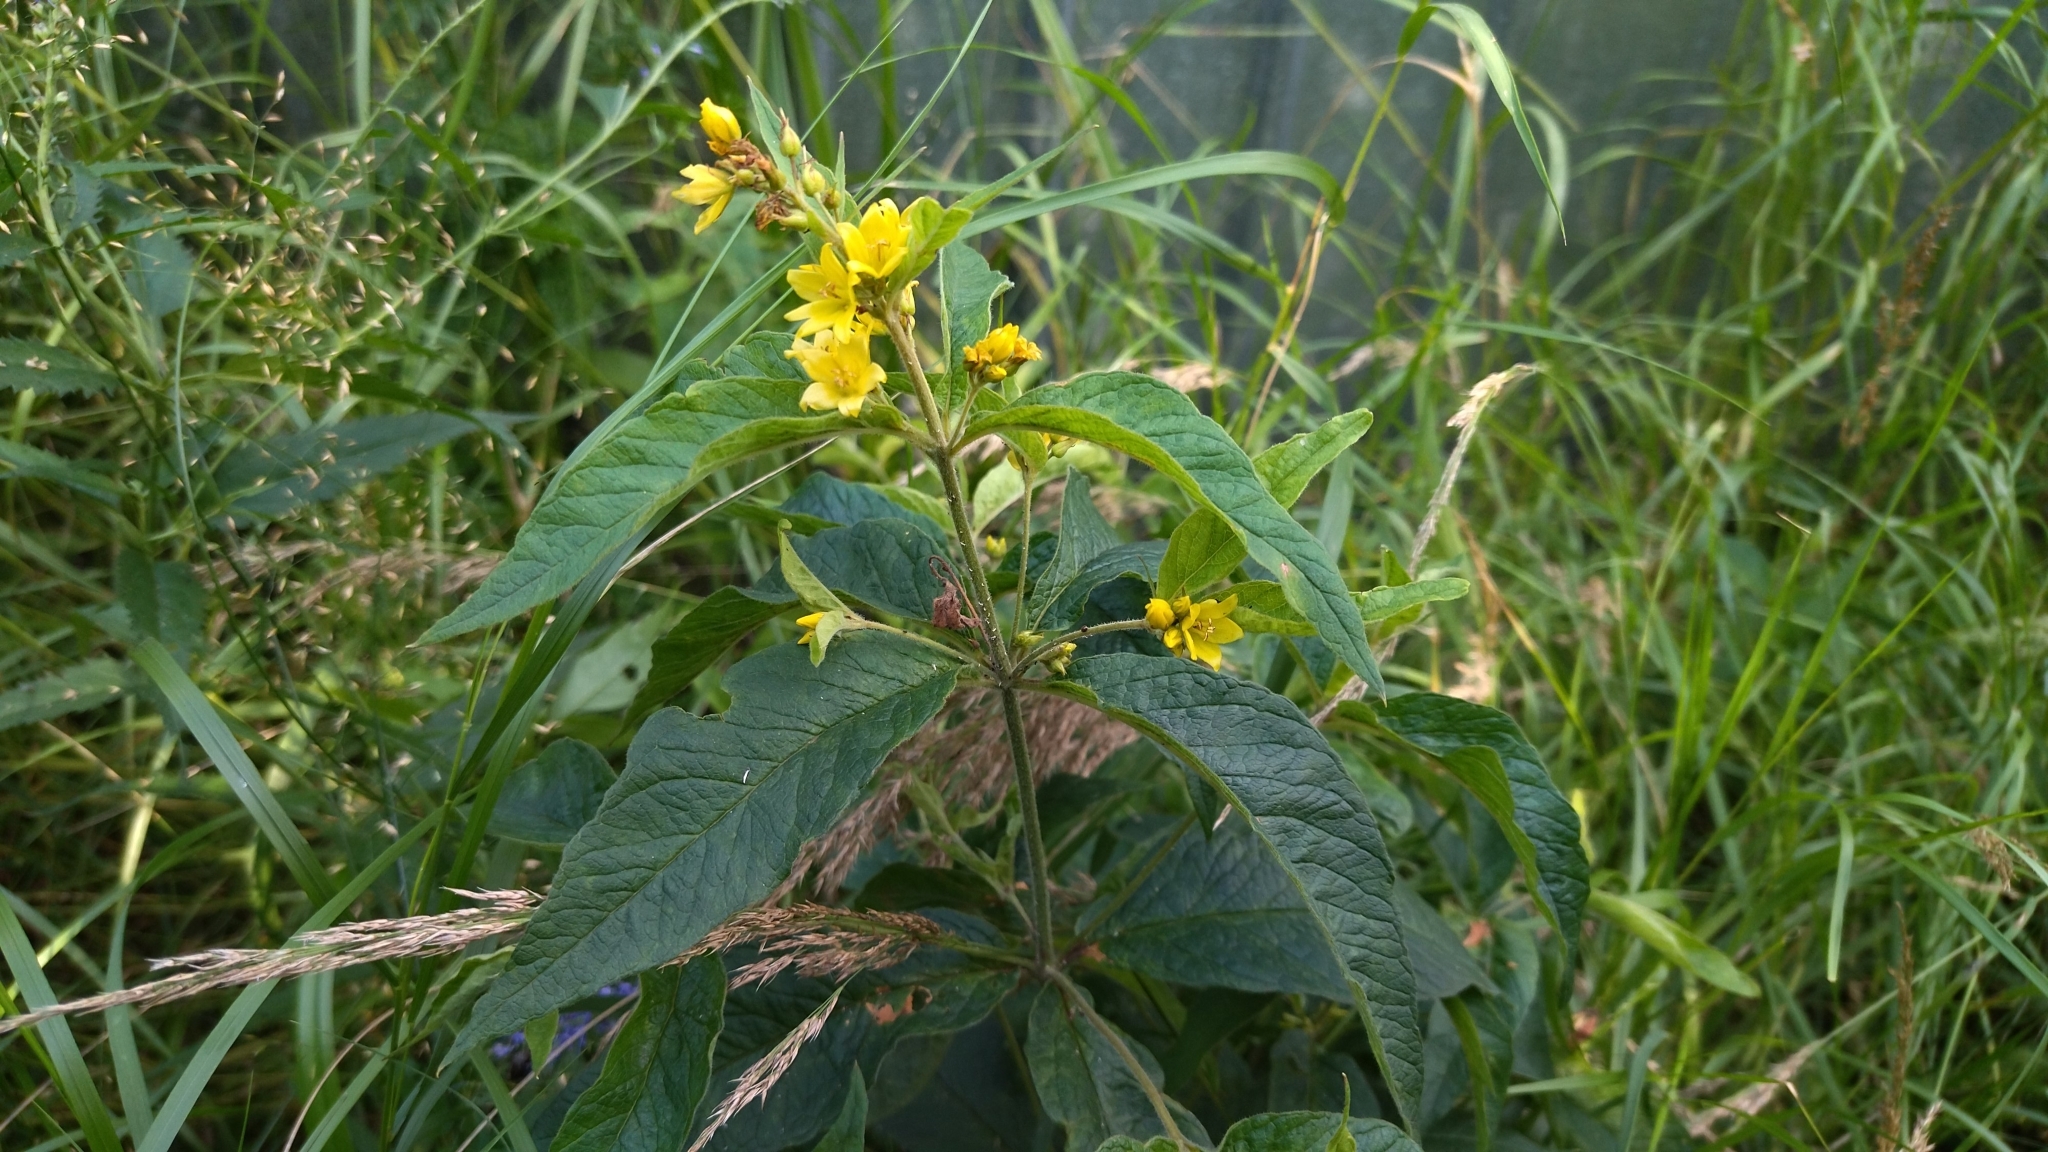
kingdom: Plantae
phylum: Tracheophyta
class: Magnoliopsida
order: Ericales
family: Primulaceae
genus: Lysimachia
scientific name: Lysimachia vulgaris
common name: Yellow loosestrife
